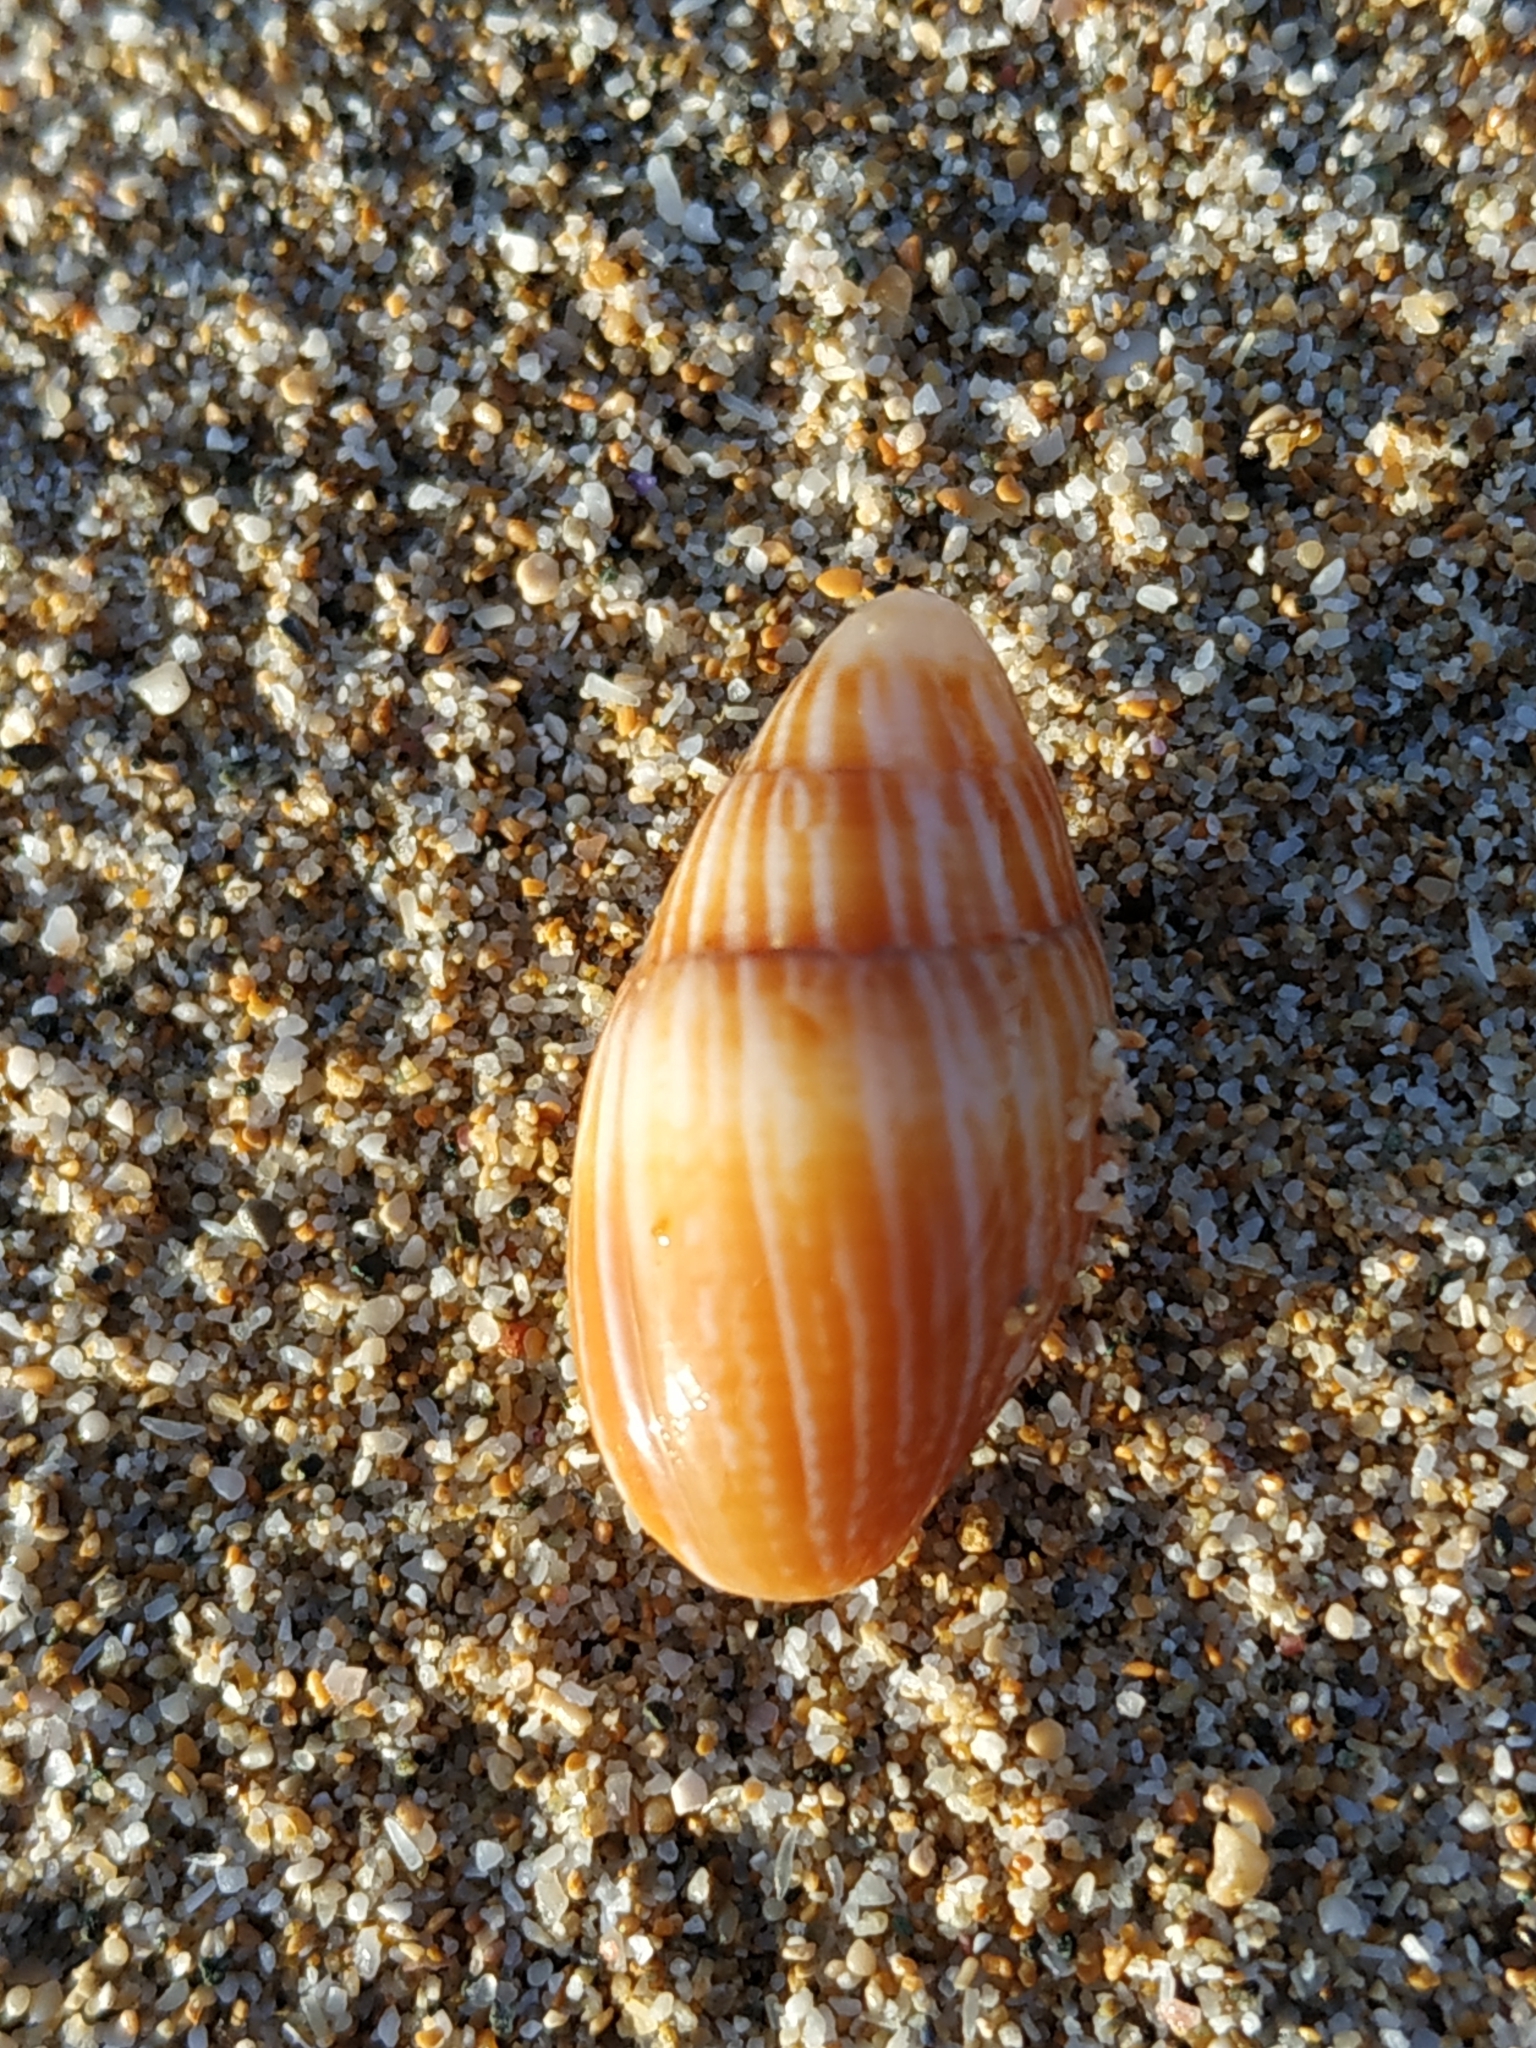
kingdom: Animalia
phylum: Mollusca
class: Gastropoda
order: Neogastropoda
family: Mitridae
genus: Strigatella
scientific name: Strigatella pica
